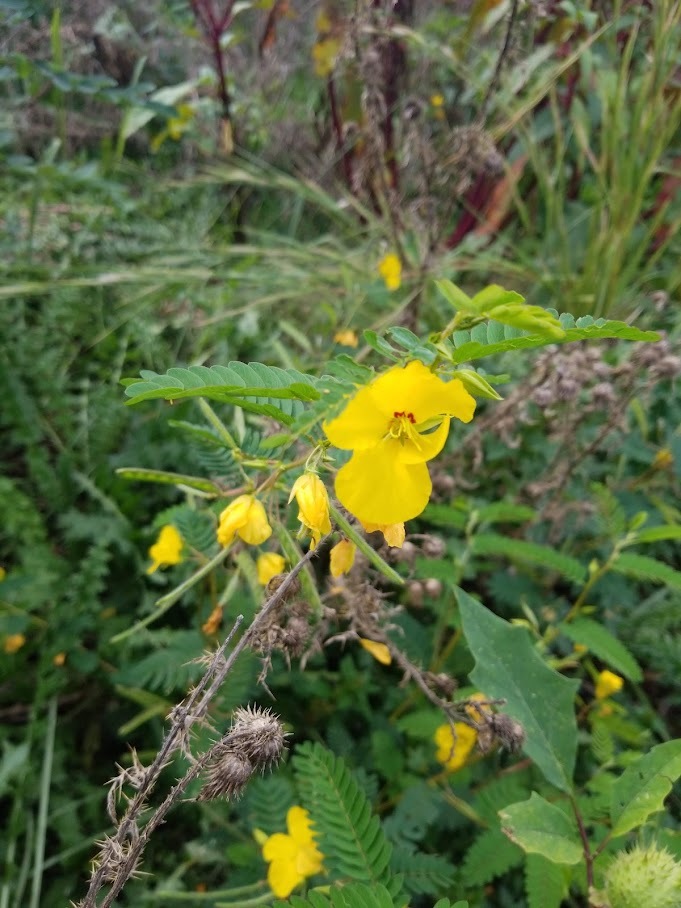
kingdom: Plantae
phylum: Tracheophyta
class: Magnoliopsida
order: Fabales
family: Fabaceae
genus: Chamaecrista
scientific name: Chamaecrista fasciculata
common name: Golden cassia
